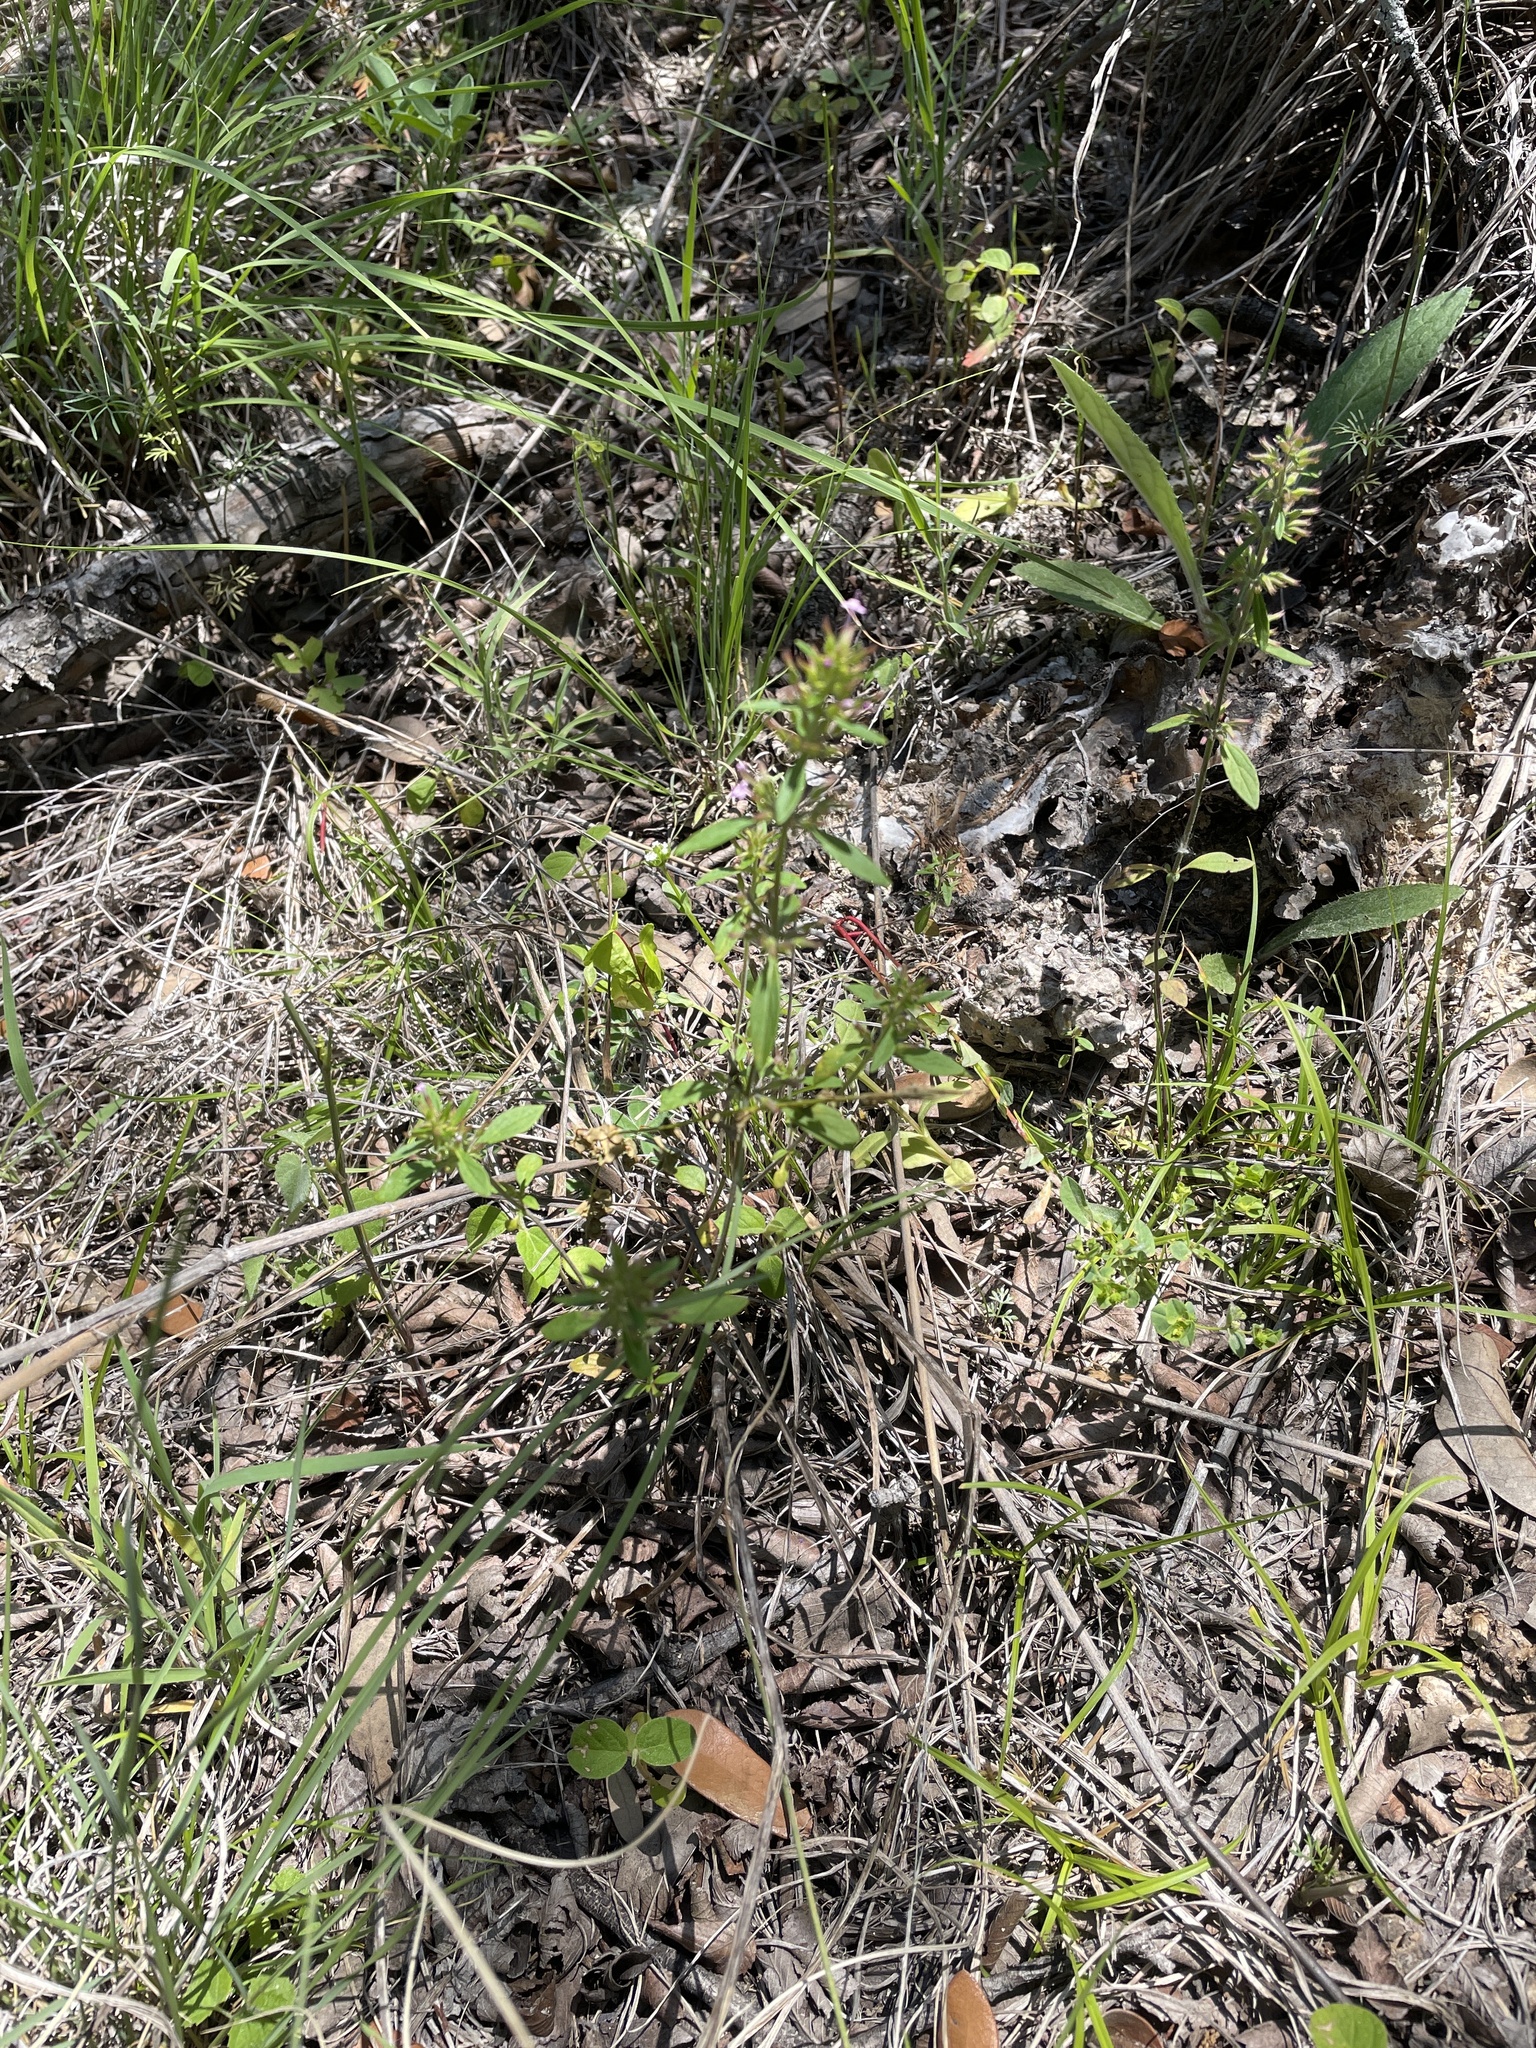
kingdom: Plantae
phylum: Tracheophyta
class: Magnoliopsida
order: Lamiales
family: Lamiaceae
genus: Hedeoma
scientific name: Hedeoma acinoides
